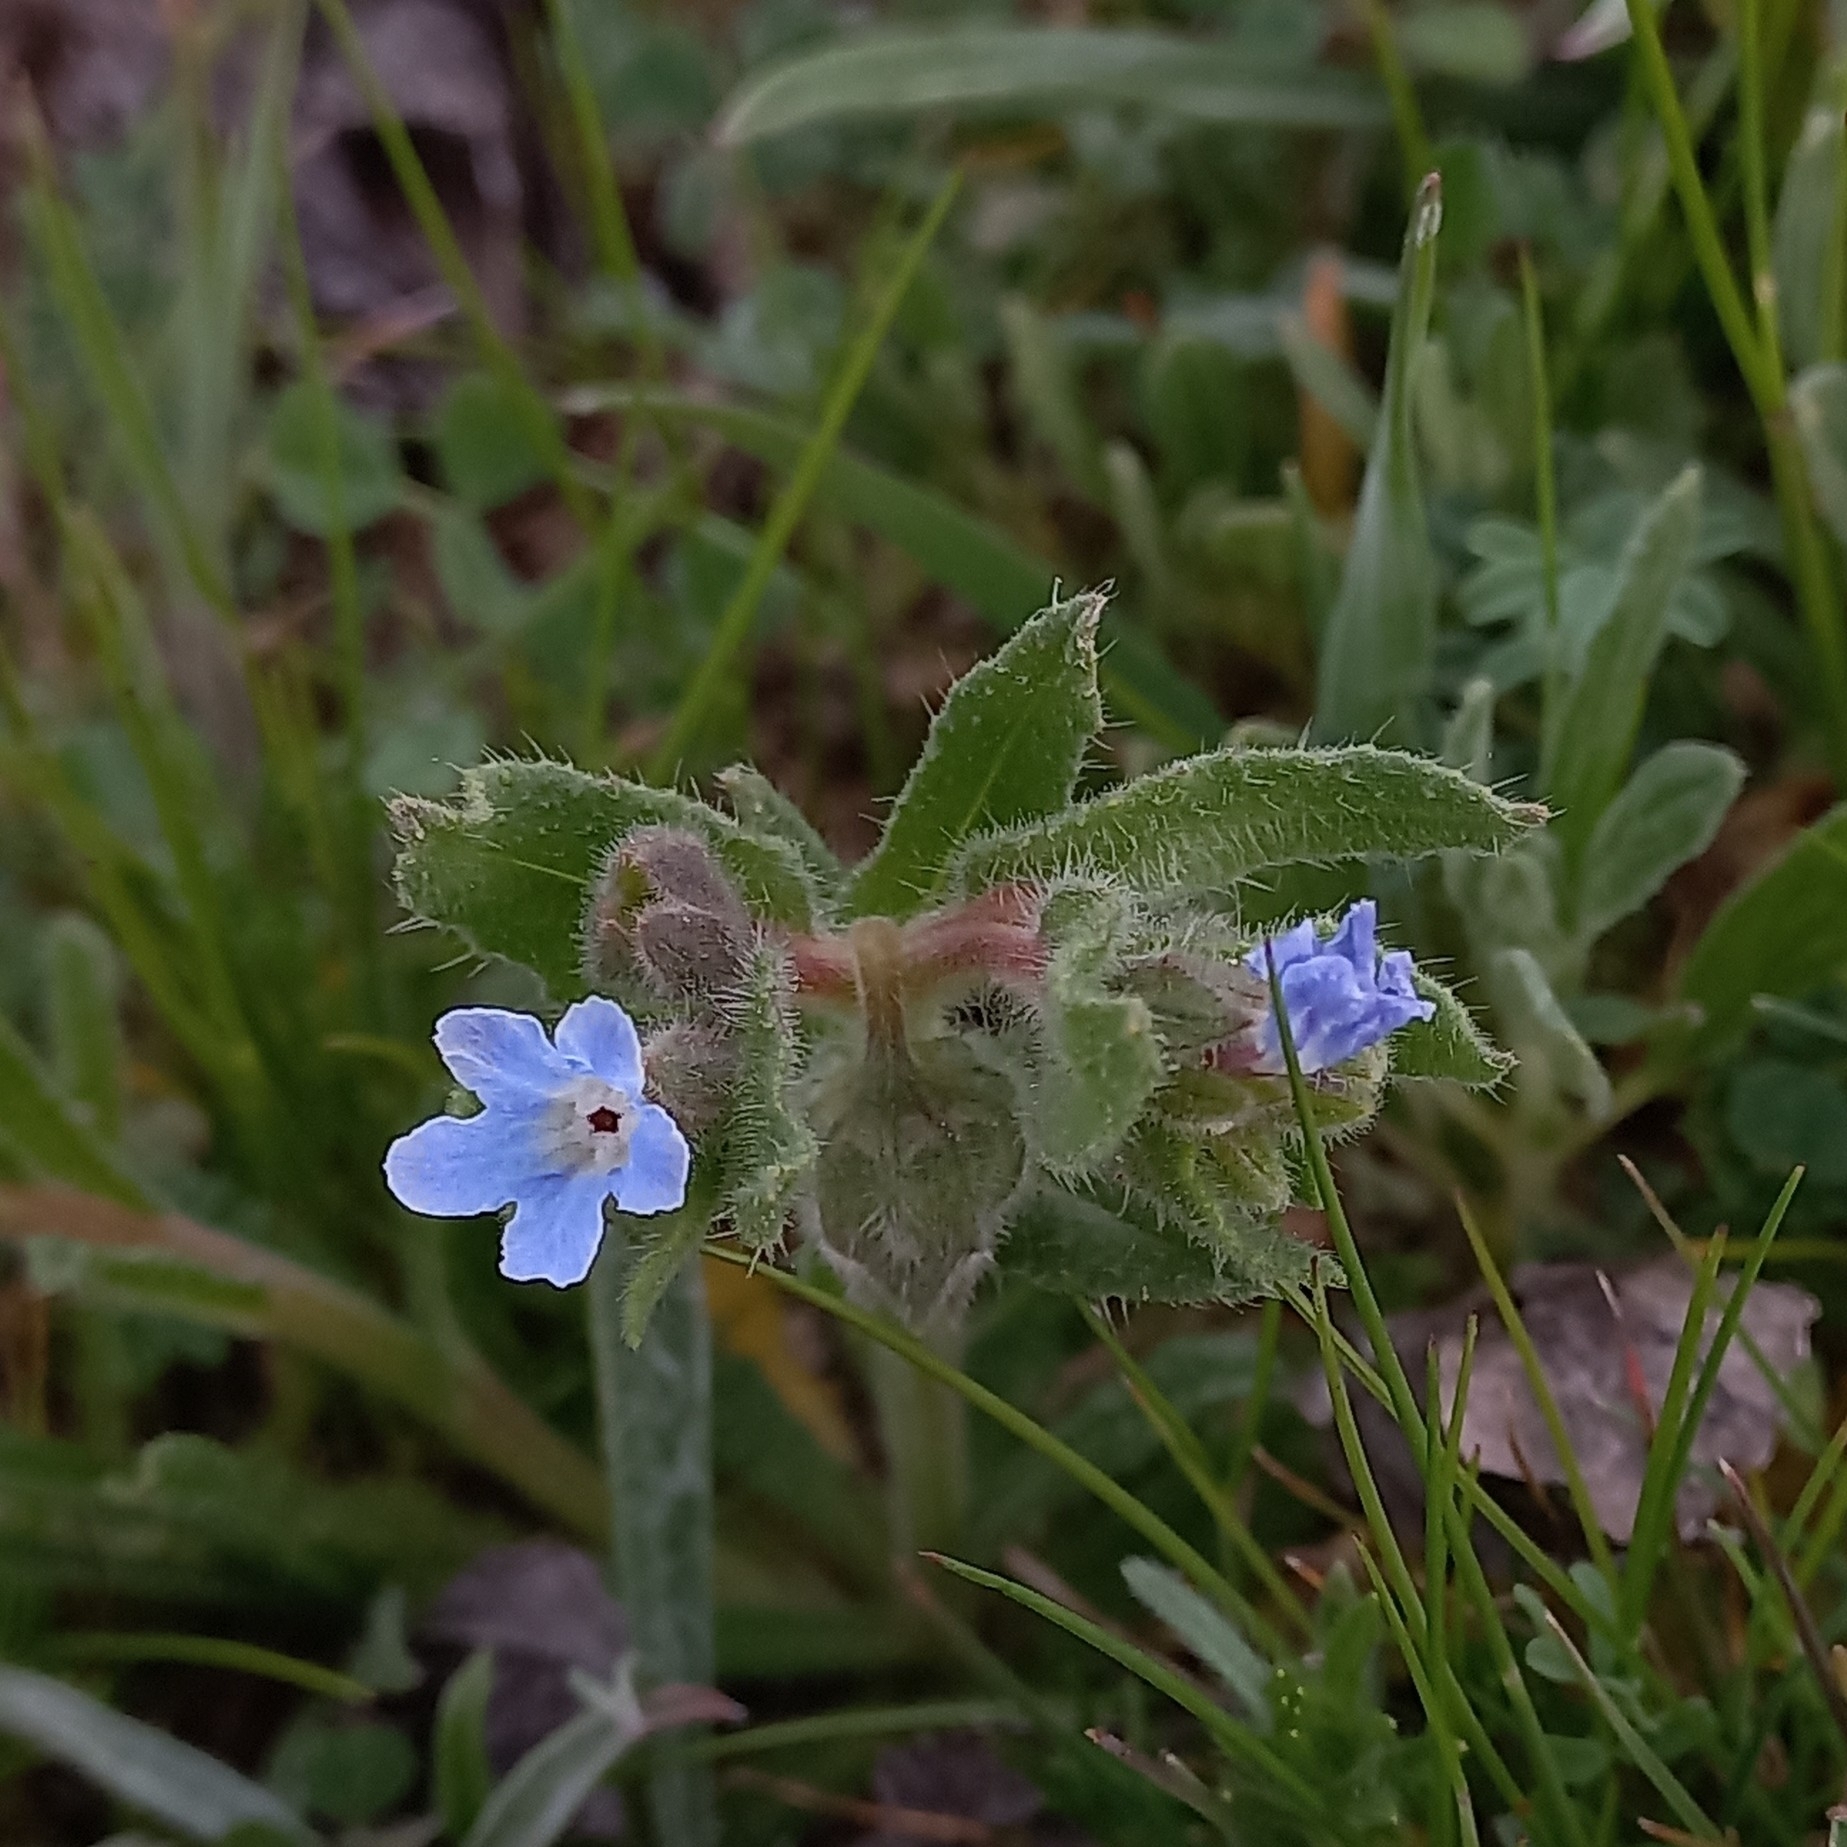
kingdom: Plantae
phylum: Tracheophyta
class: Magnoliopsida
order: Boraginales
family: Boraginaceae
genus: Nonea
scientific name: Nonea micrantha
